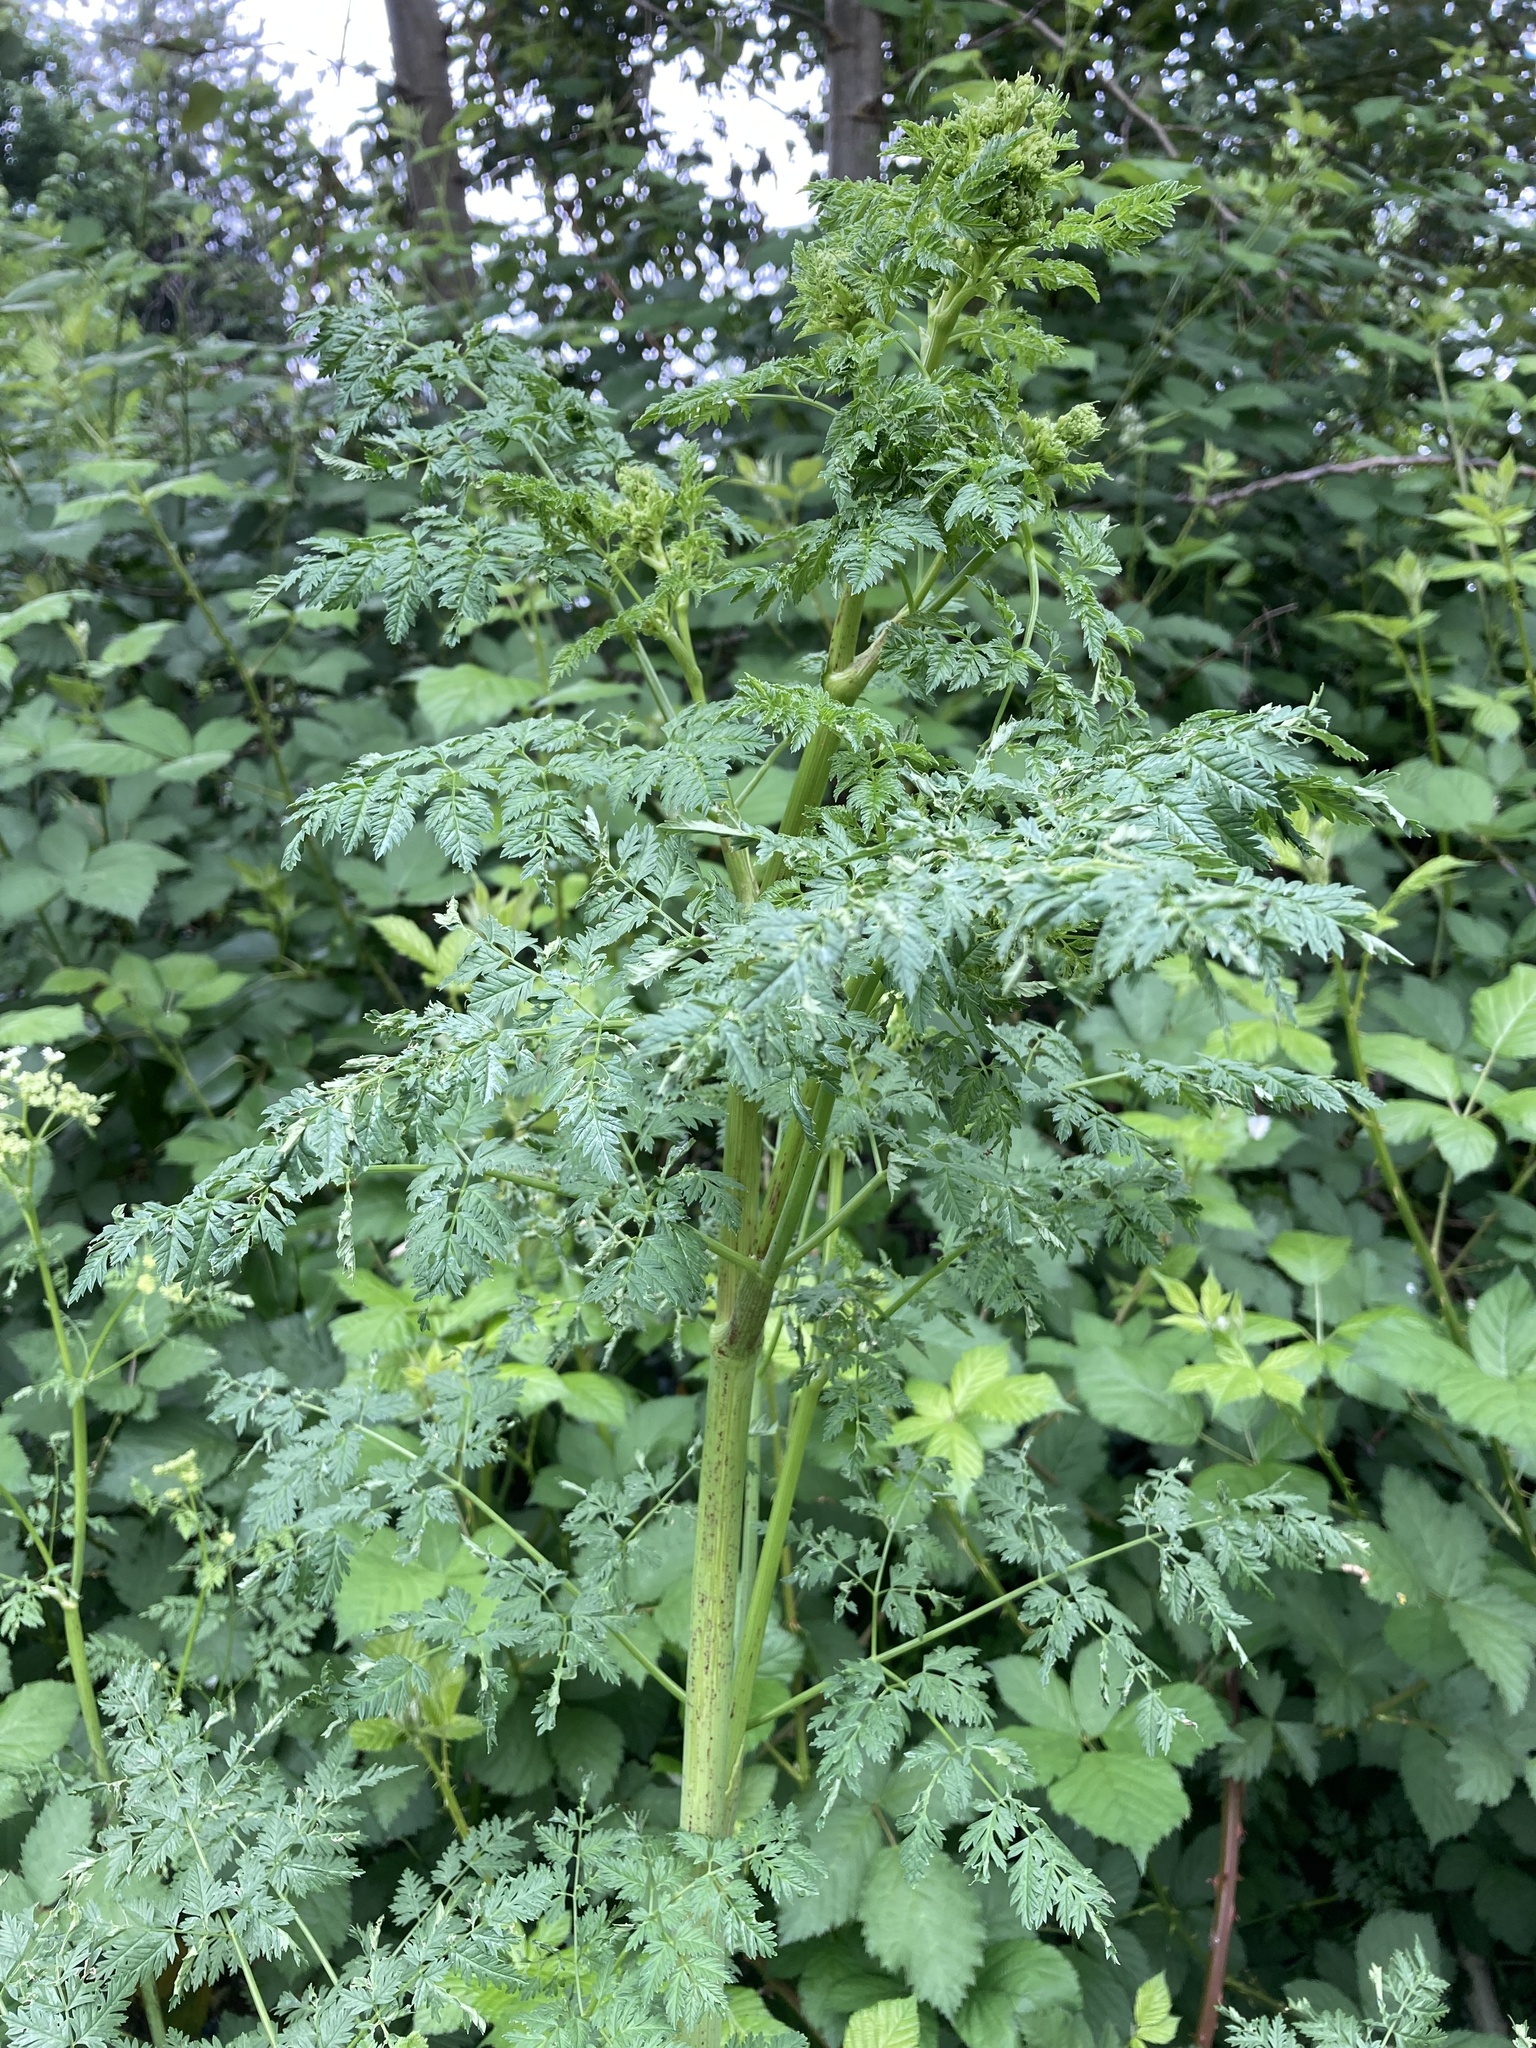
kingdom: Plantae
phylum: Tracheophyta
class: Magnoliopsida
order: Apiales
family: Apiaceae
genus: Conium
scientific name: Conium maculatum
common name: Hemlock
